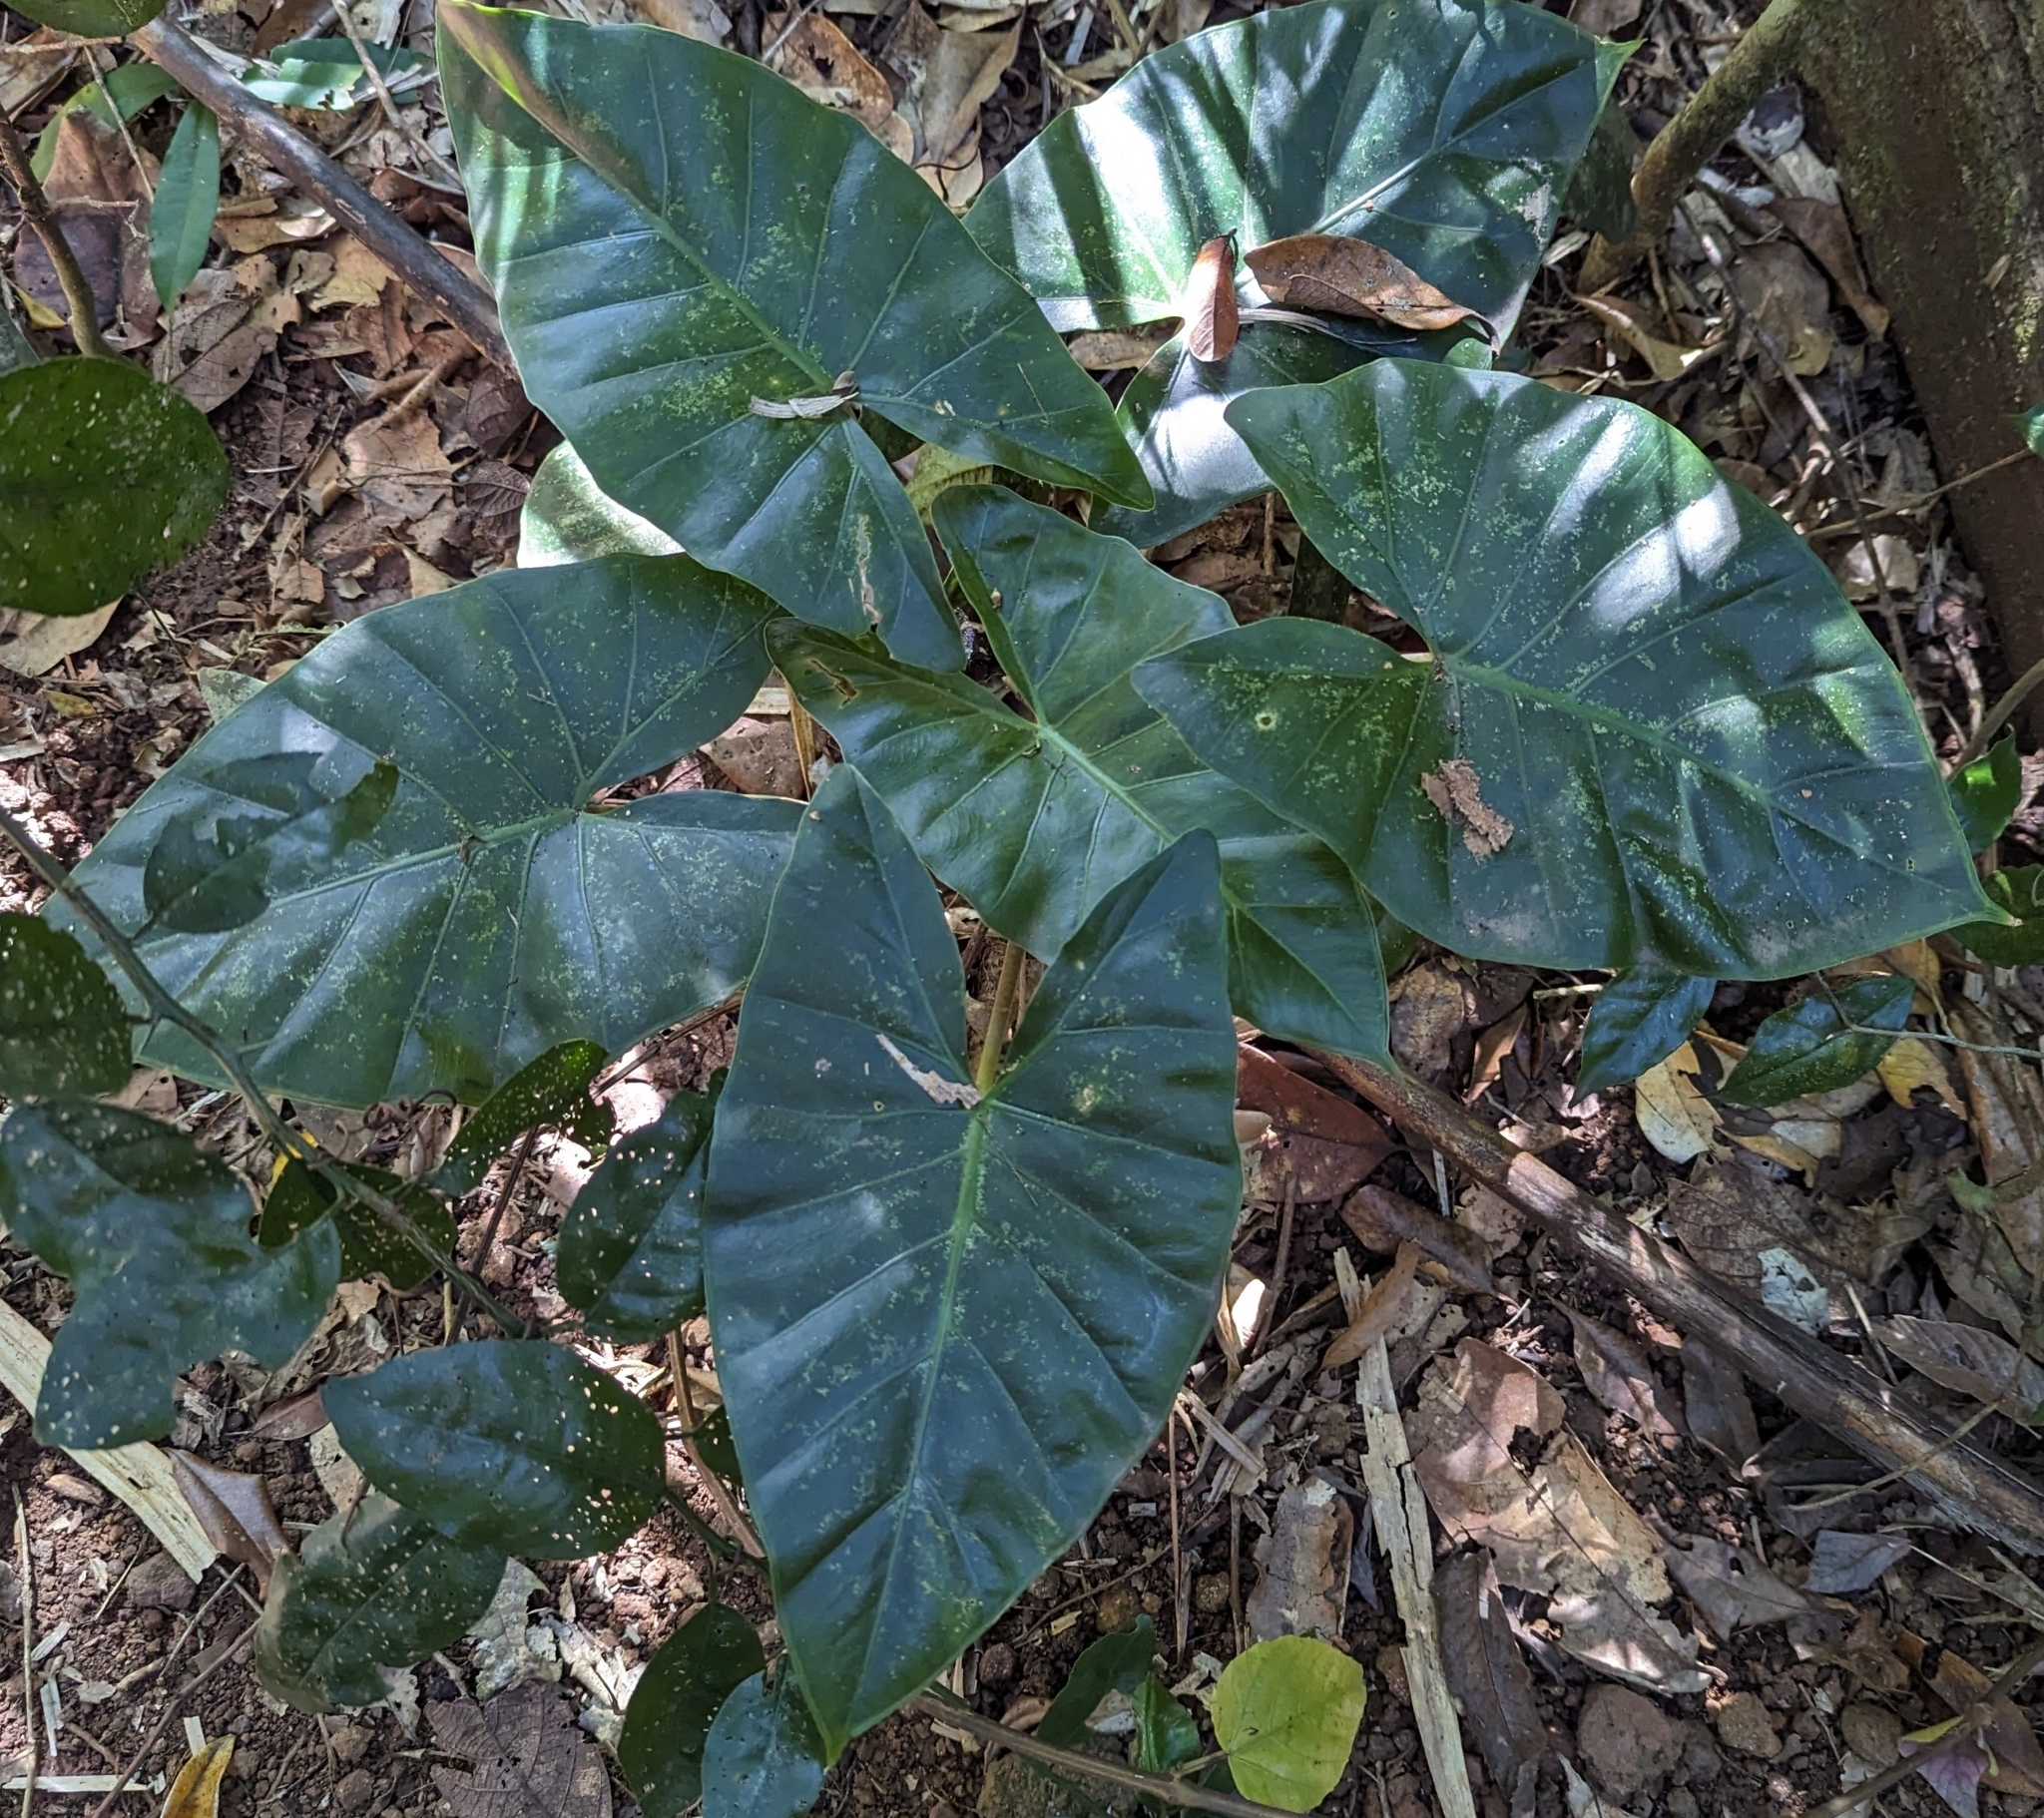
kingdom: Plantae
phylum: Tracheophyta
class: Liliopsida
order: Alismatales
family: Araceae
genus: Alocasia
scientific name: Alocasia brisbanensis
